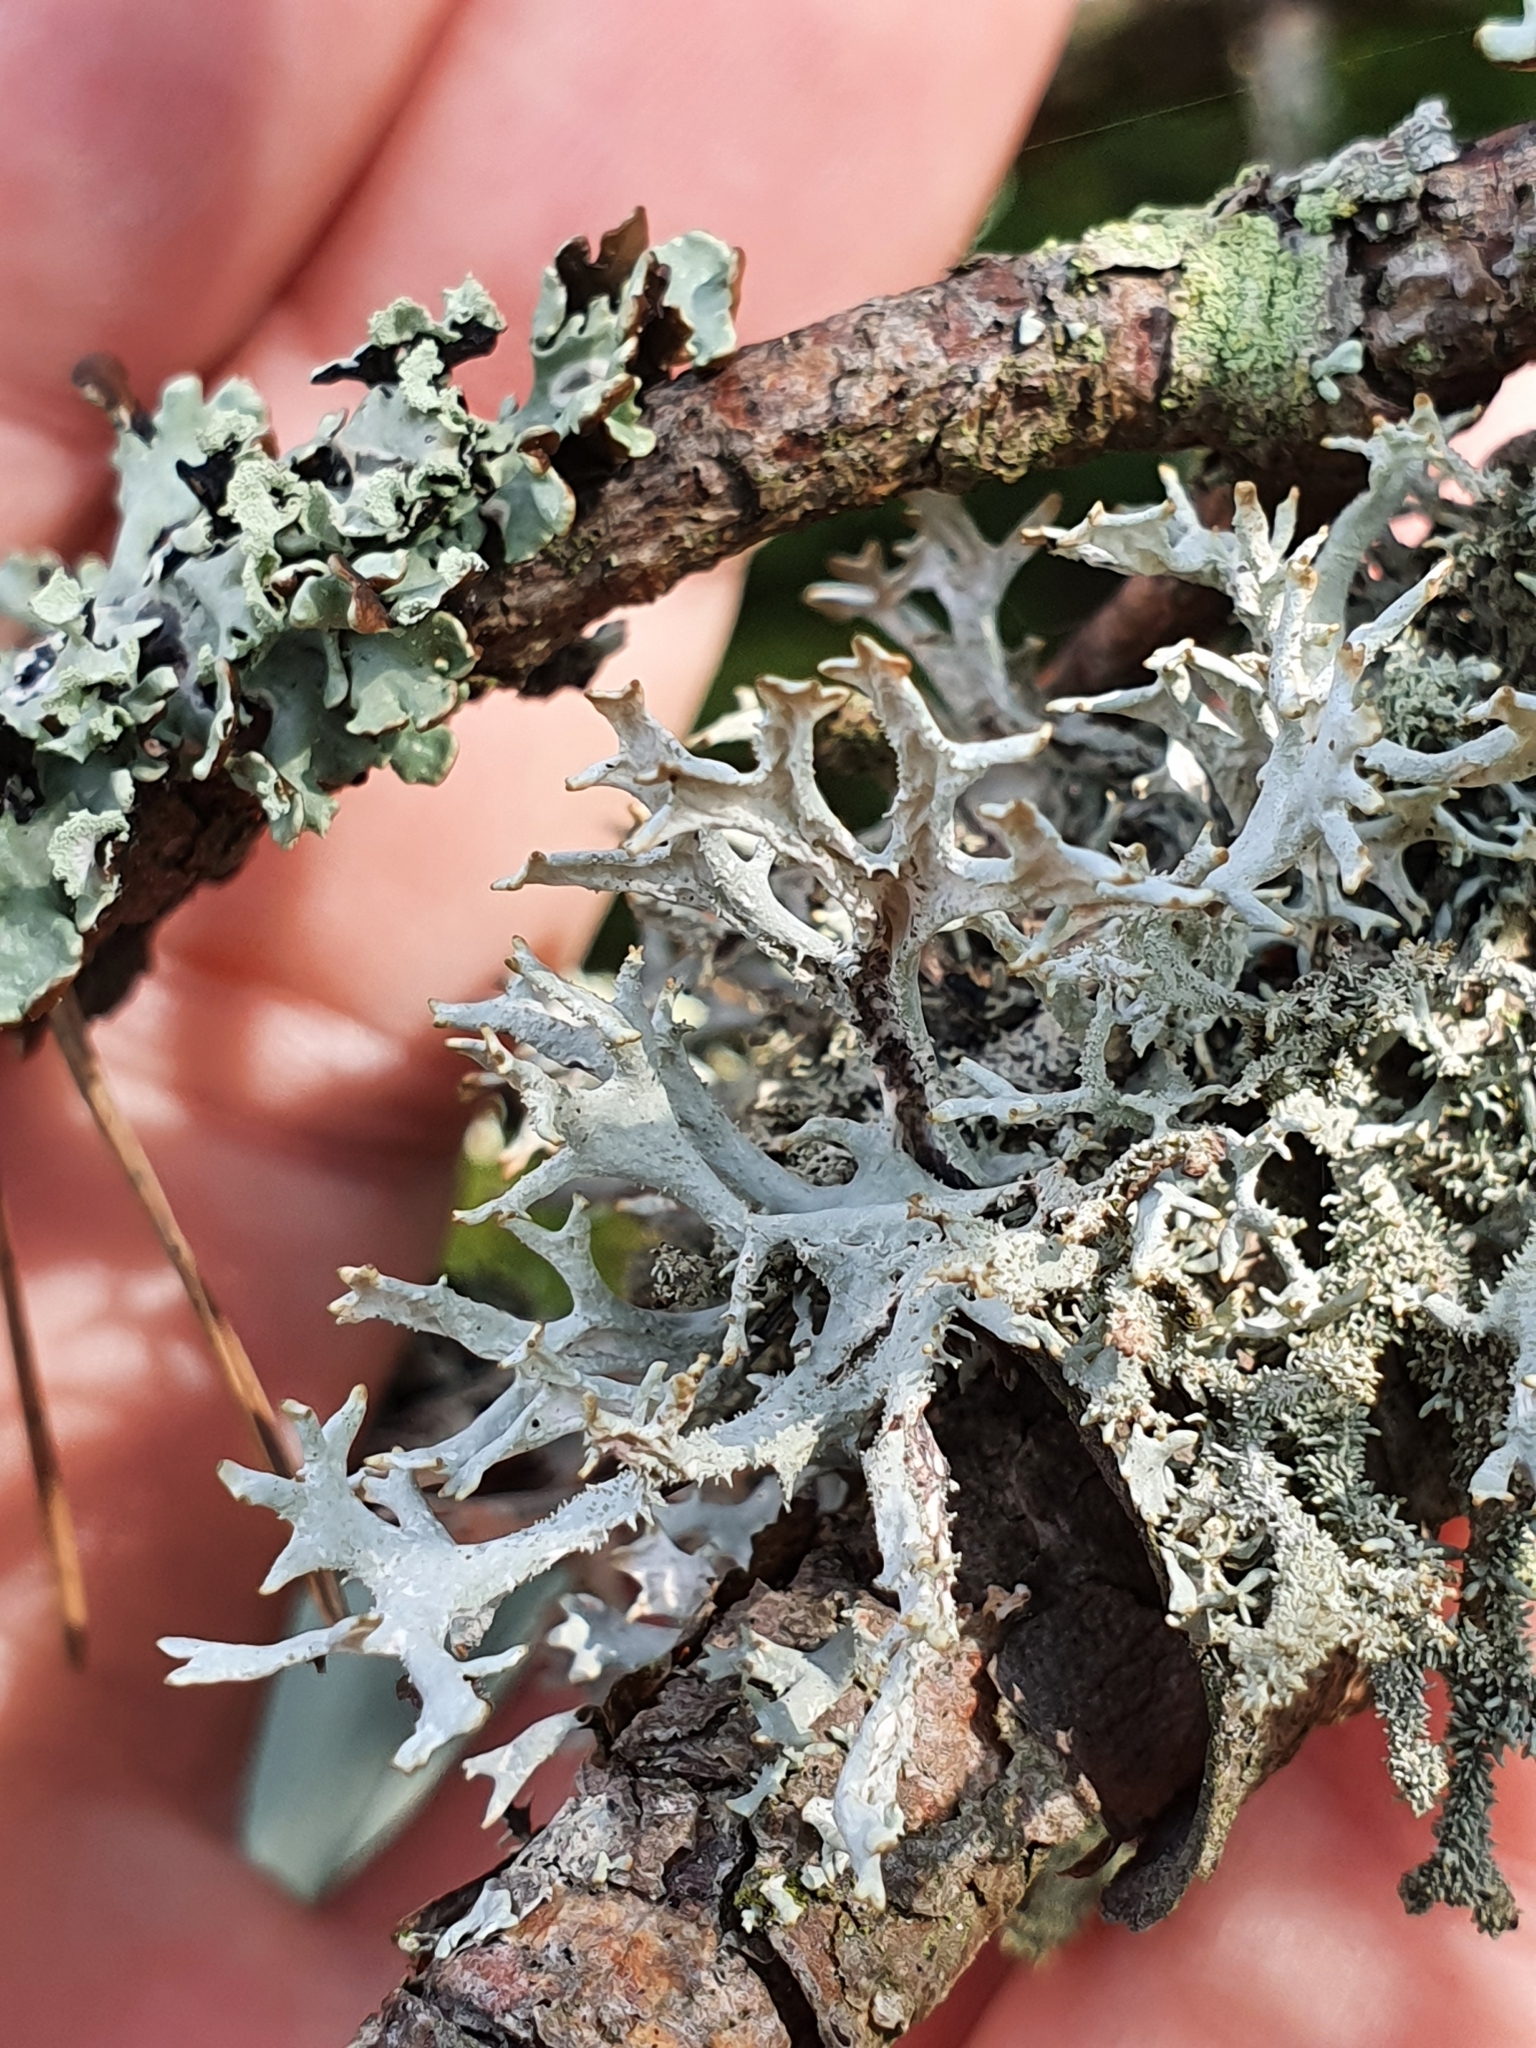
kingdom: Fungi
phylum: Ascomycota
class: Lecanoromycetes
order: Lecanorales
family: Parmeliaceae
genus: Pseudevernia
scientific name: Pseudevernia furfuracea
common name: Tree moss
